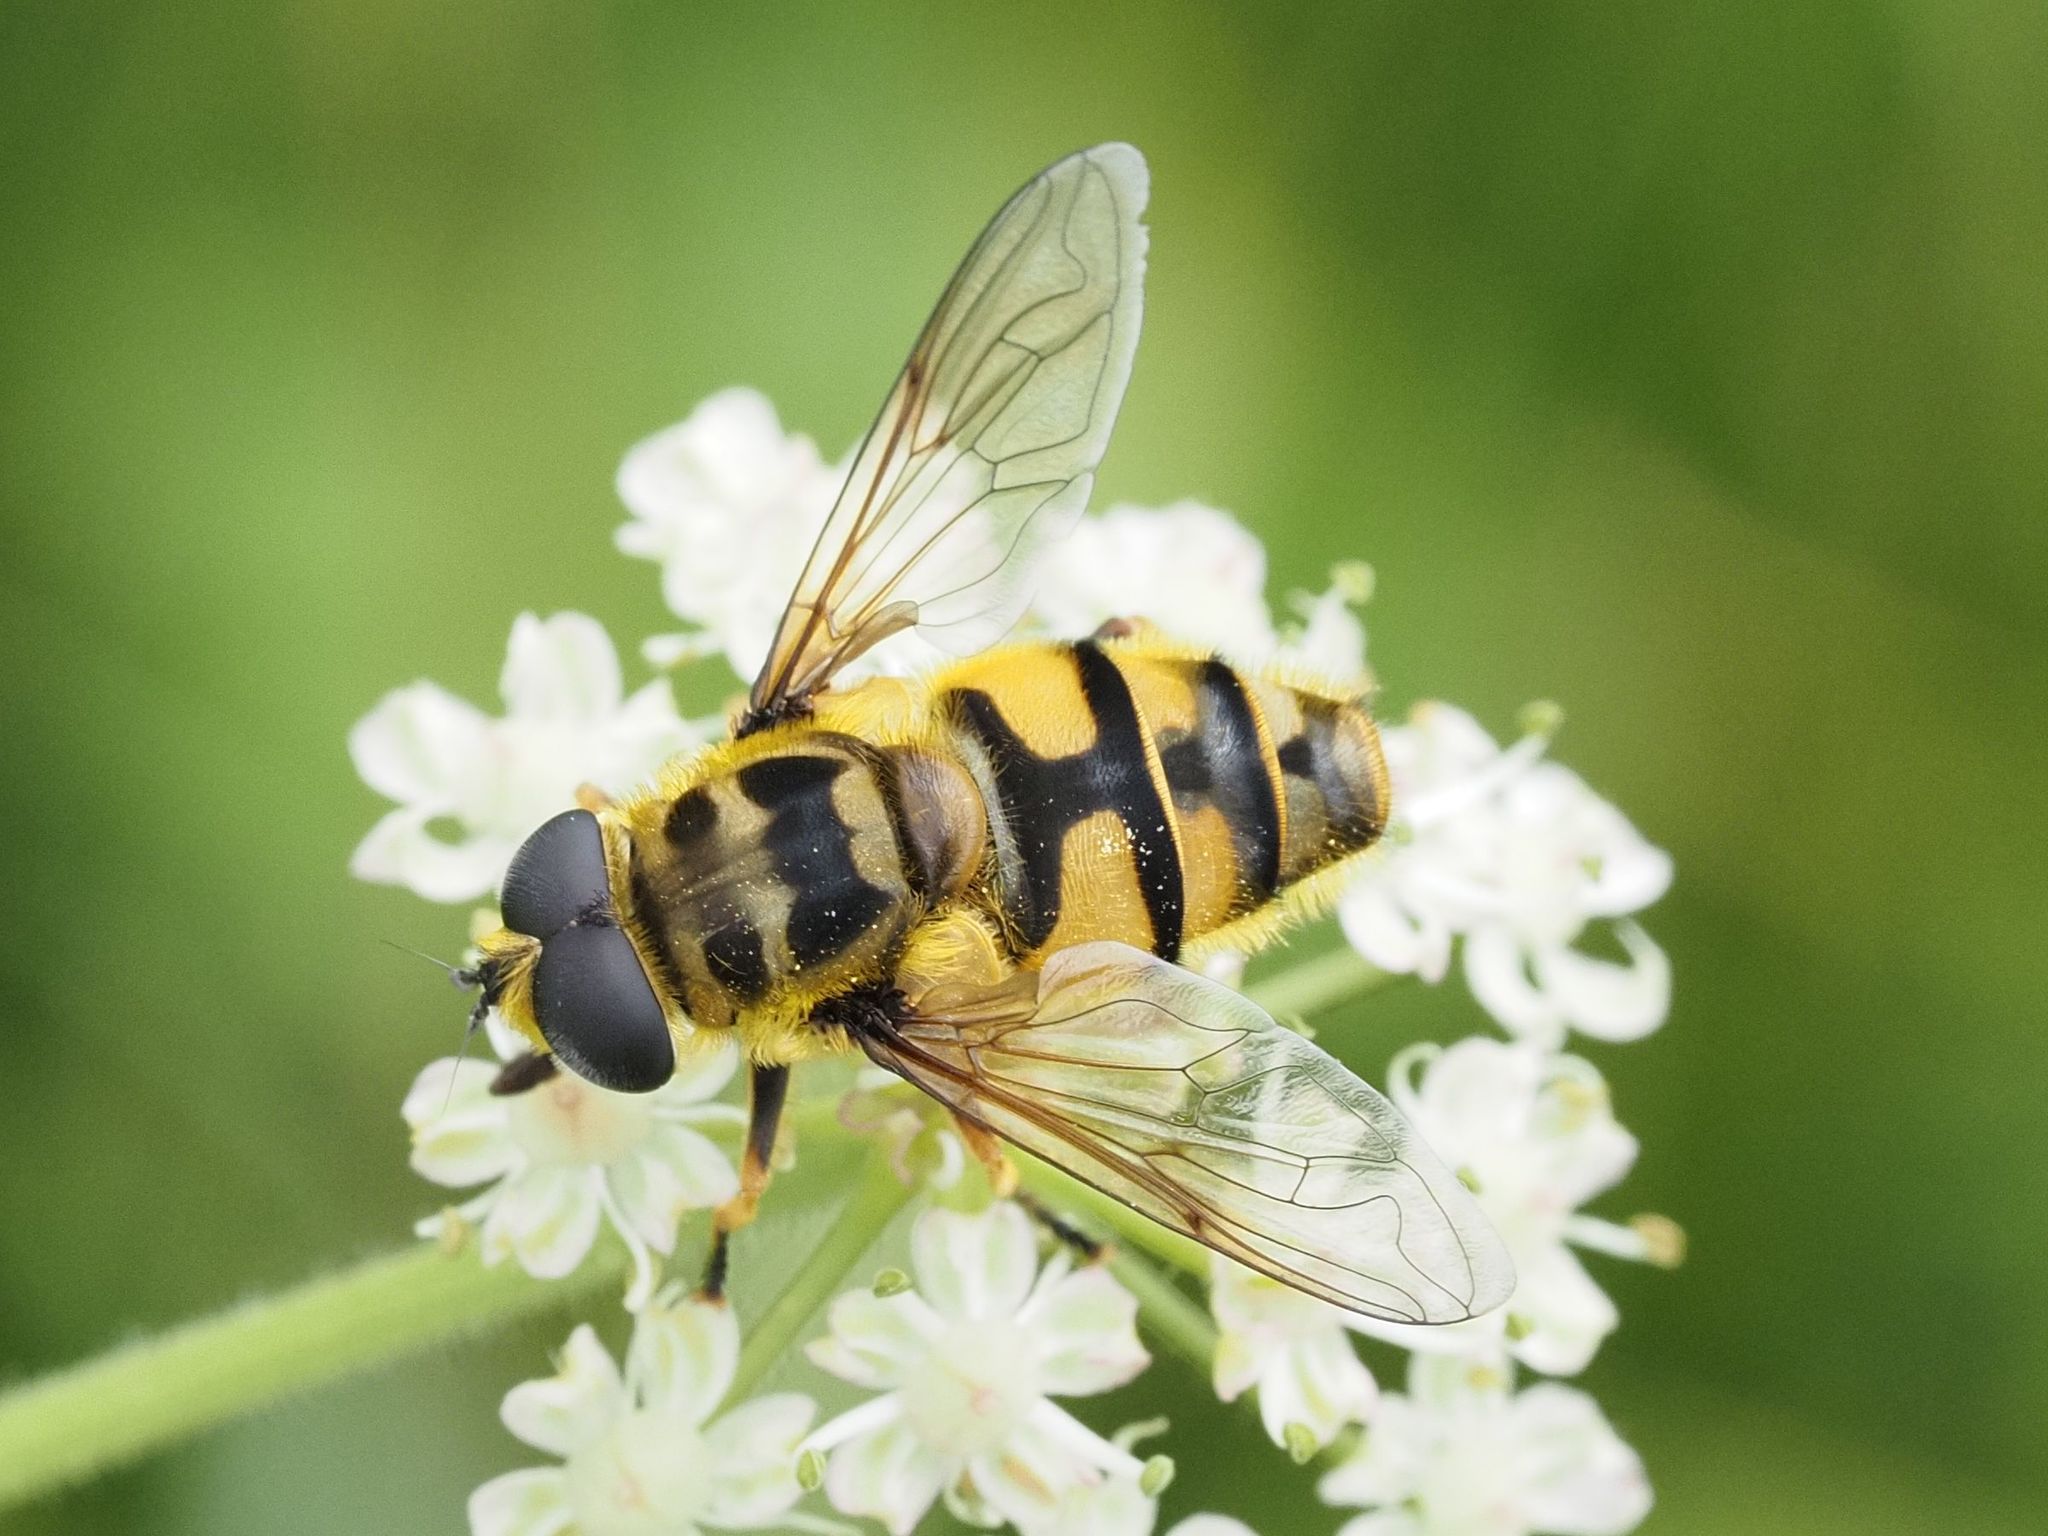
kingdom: Animalia
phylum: Arthropoda
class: Insecta
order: Diptera
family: Syrphidae
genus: Myathropa
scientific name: Myathropa florea
